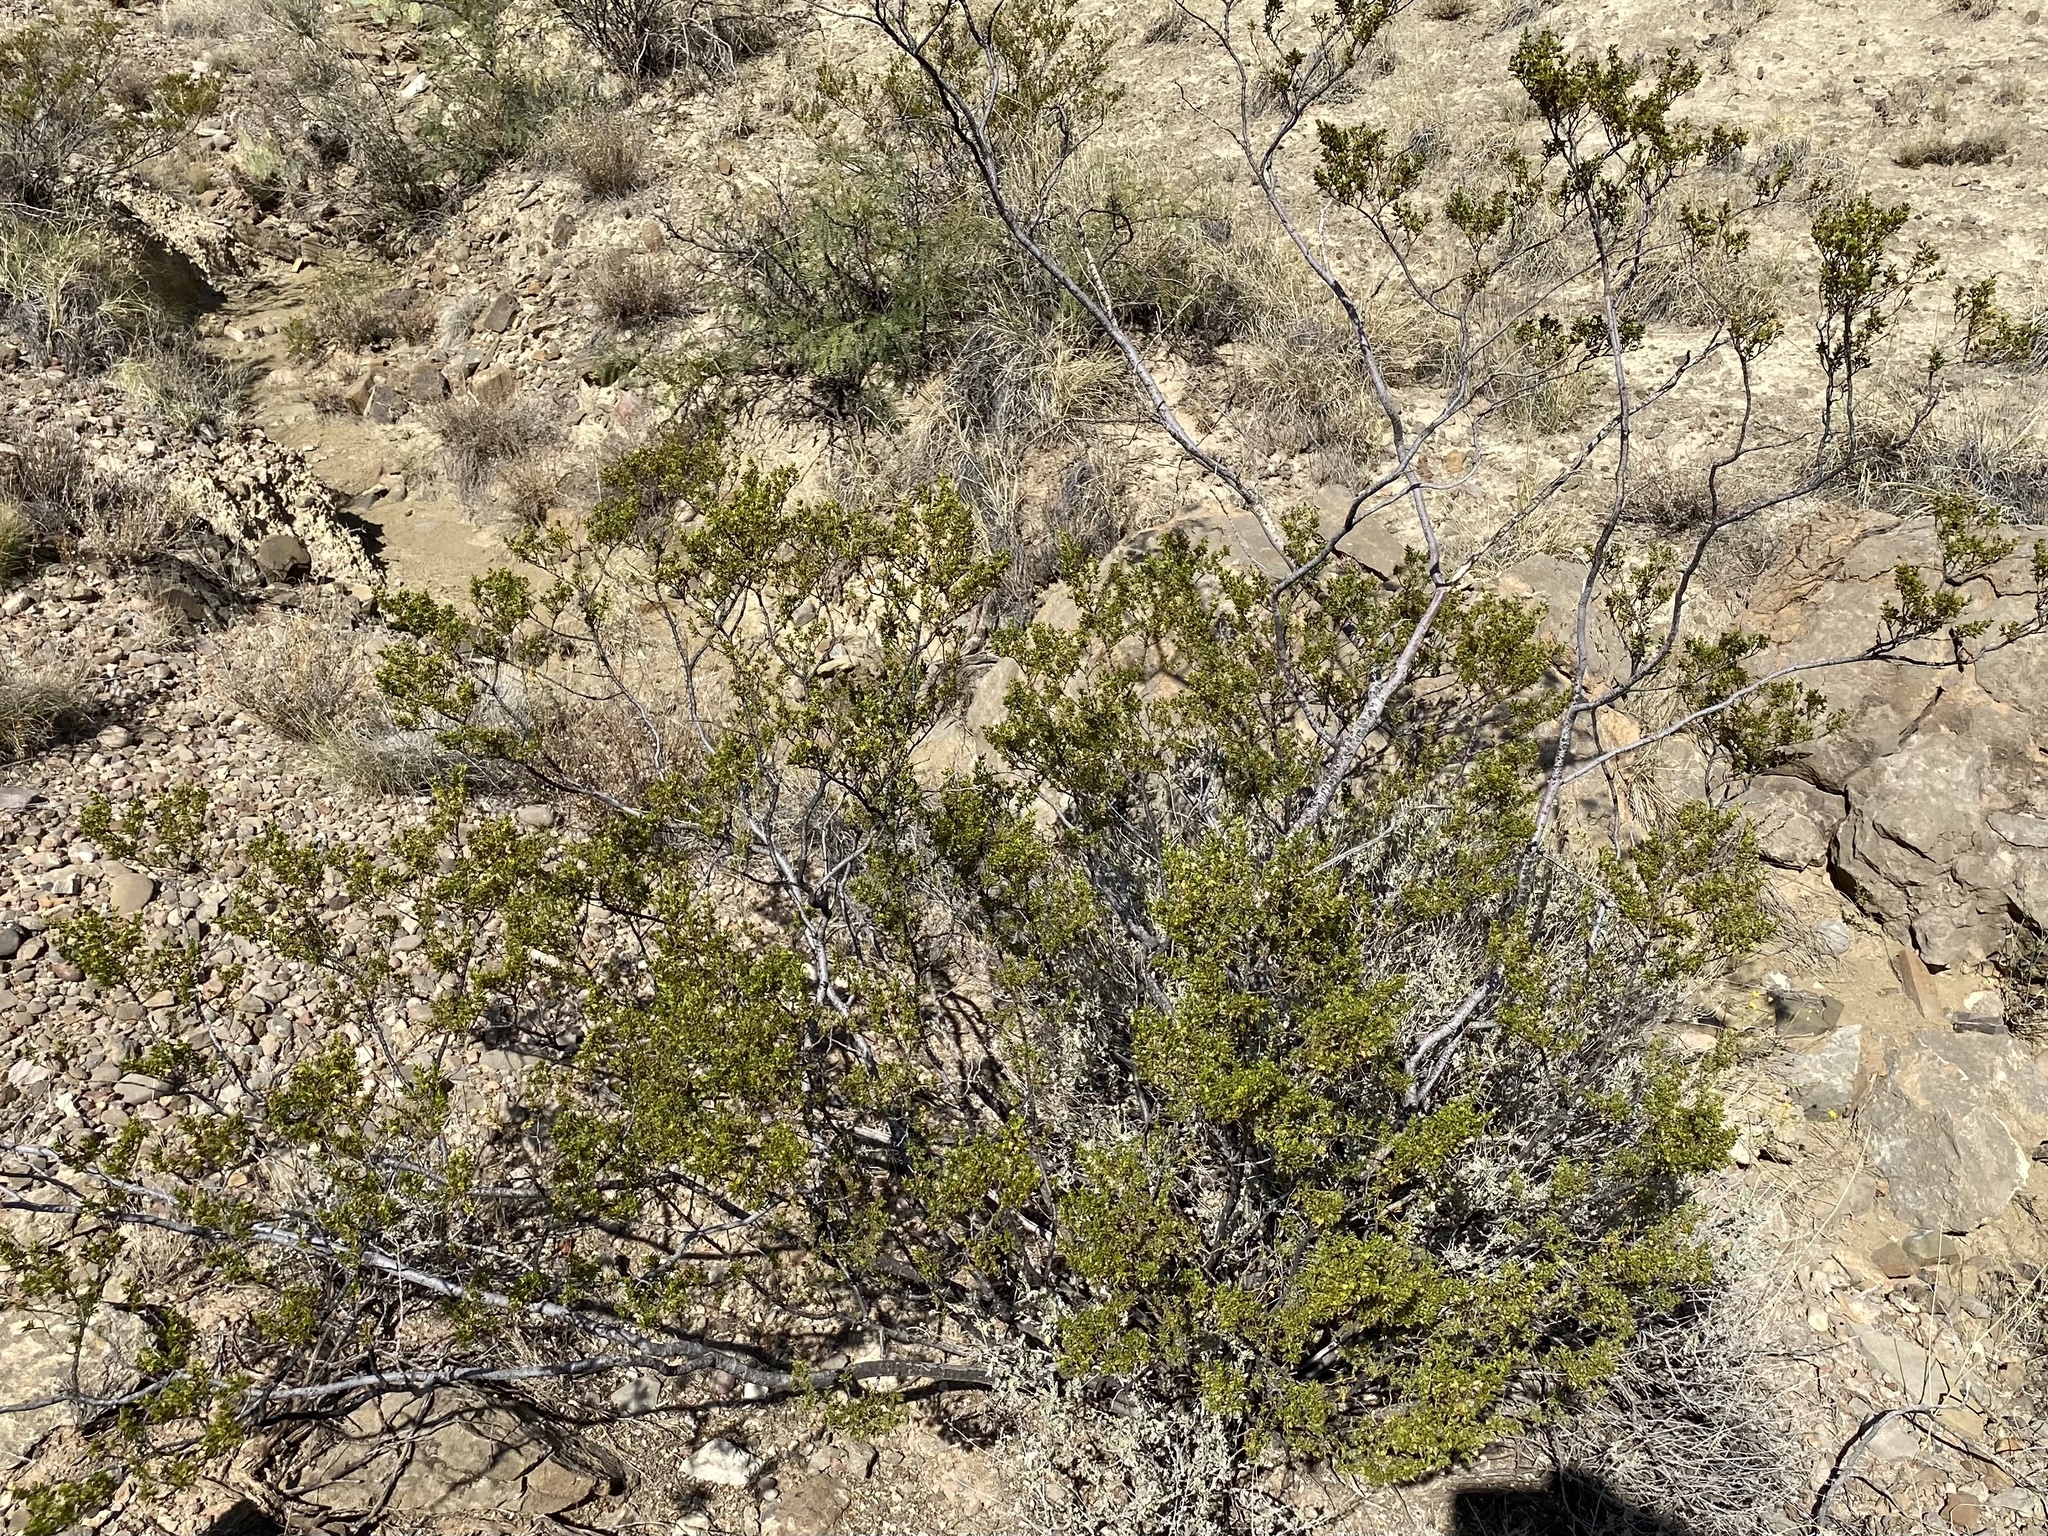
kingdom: Plantae
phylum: Tracheophyta
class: Magnoliopsida
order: Zygophyllales
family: Zygophyllaceae
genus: Larrea
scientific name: Larrea tridentata
